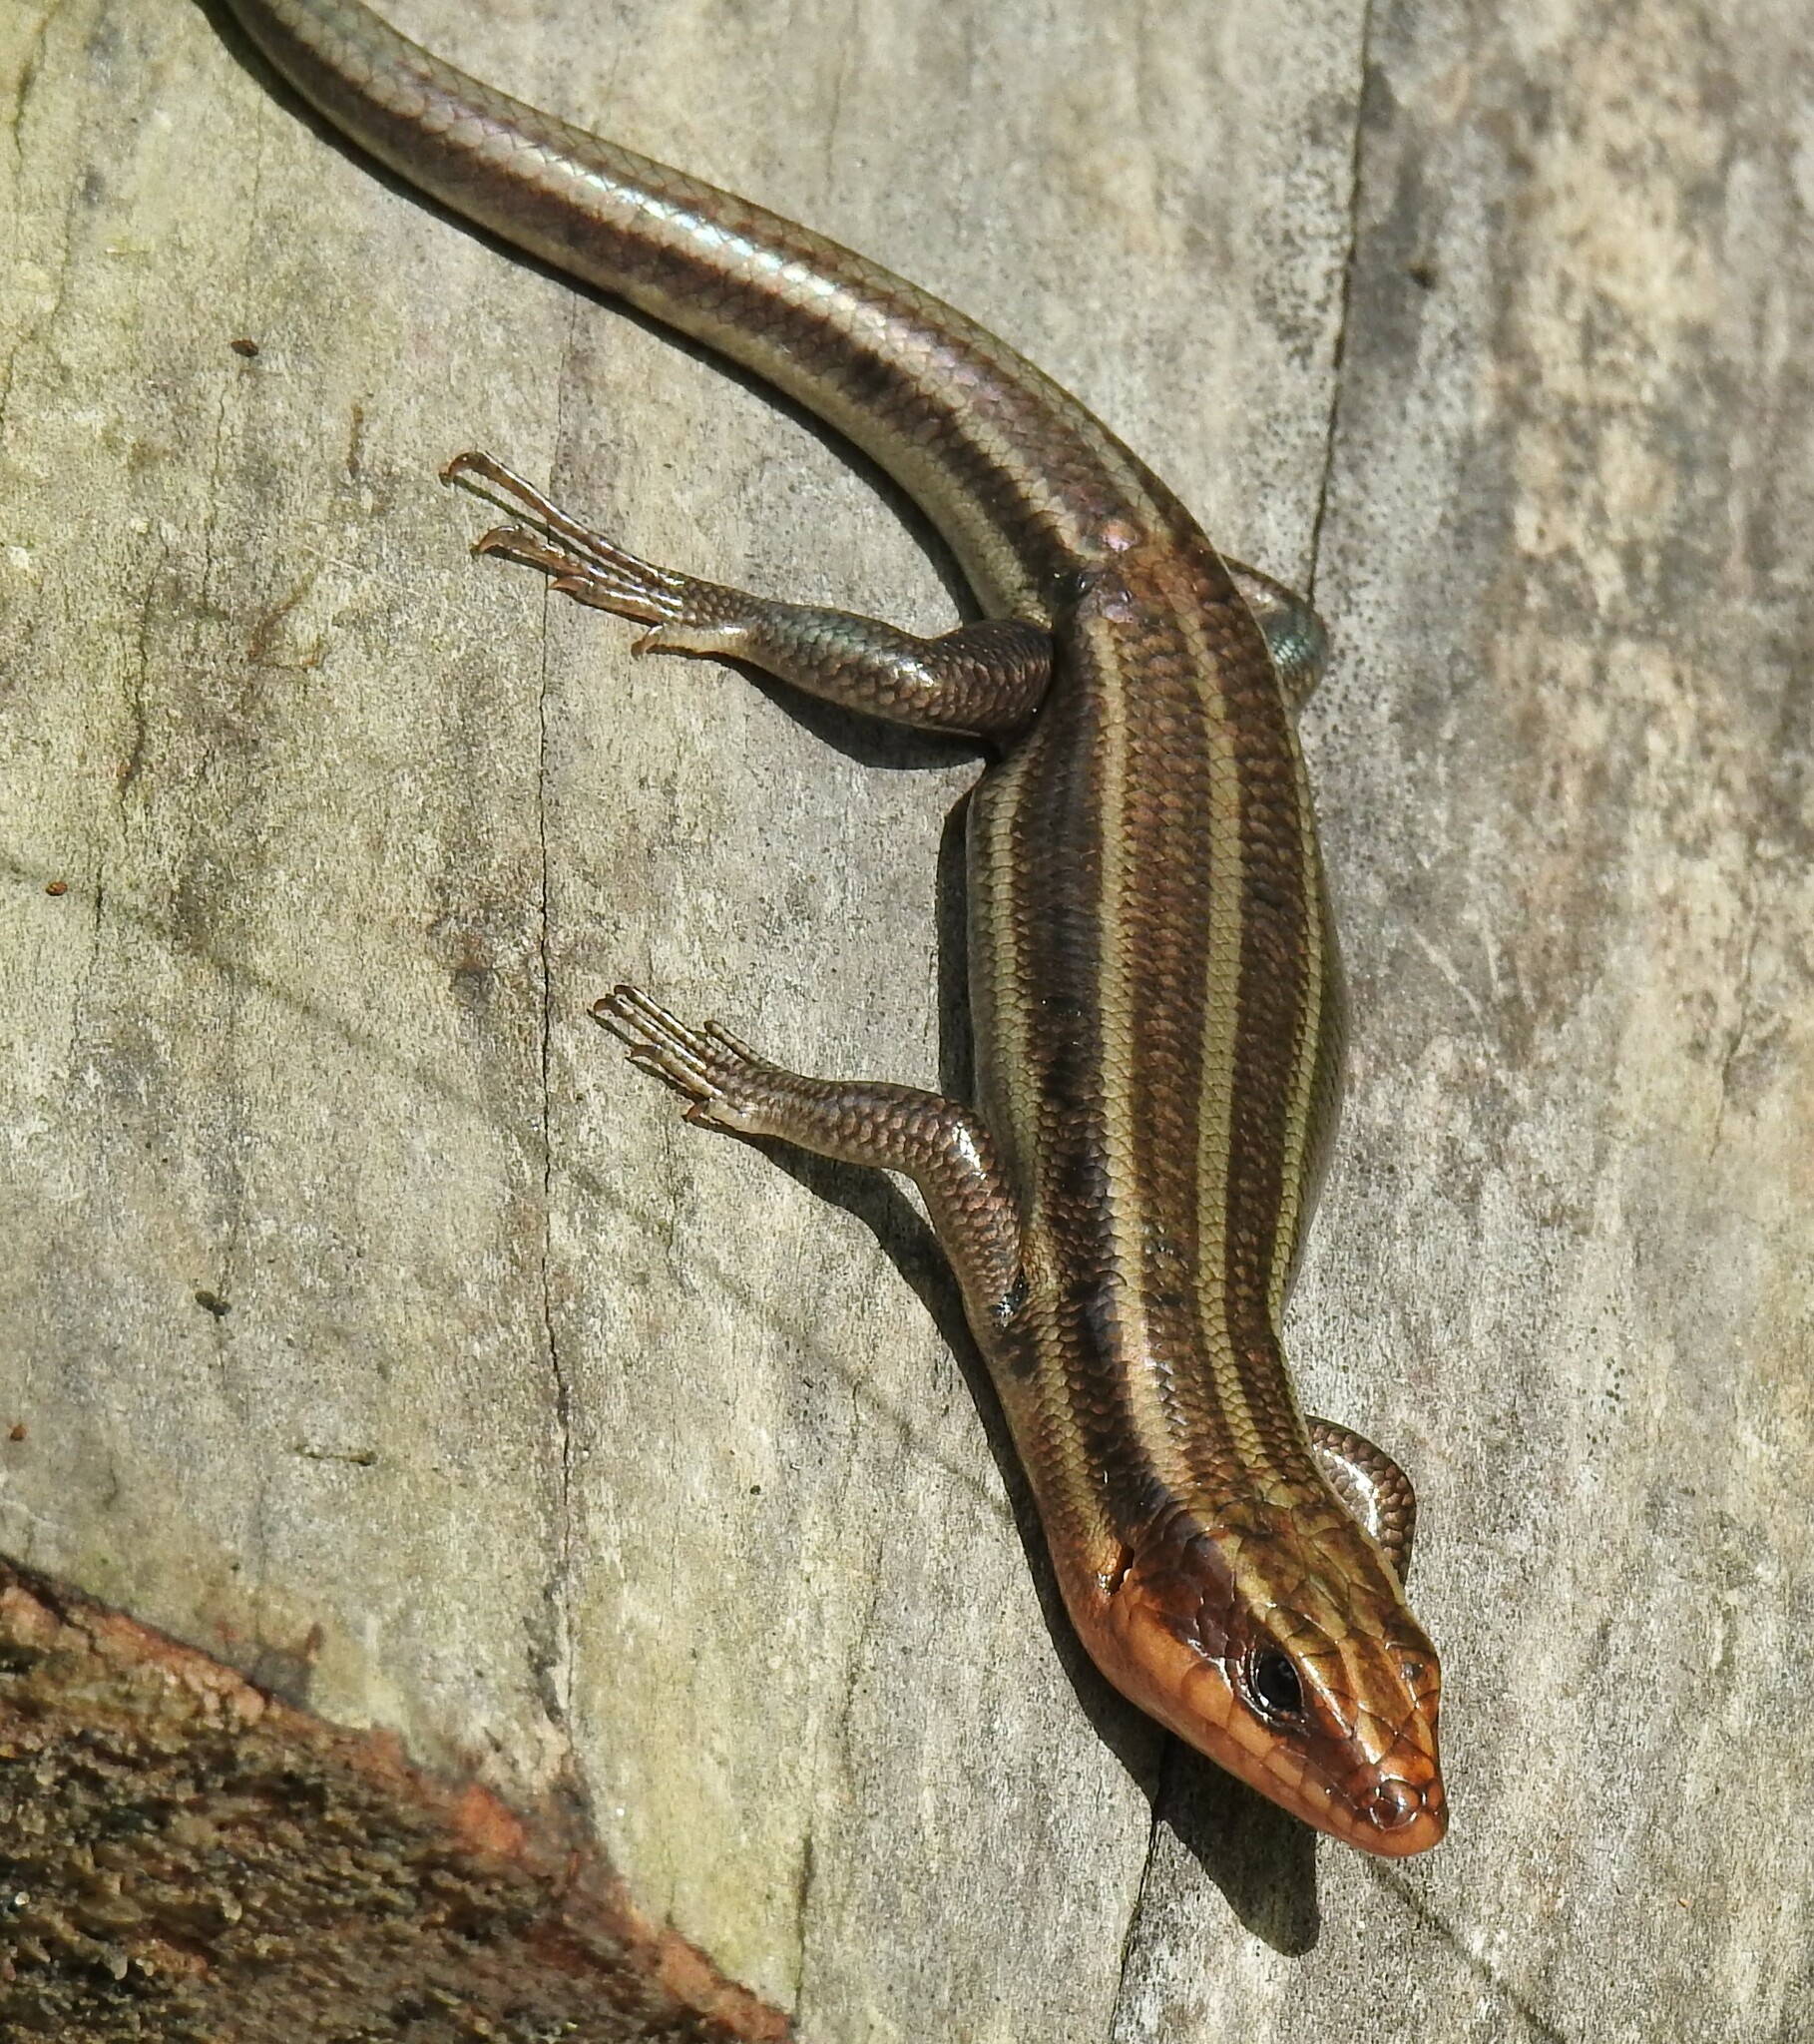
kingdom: Animalia
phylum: Chordata
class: Squamata
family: Scincidae
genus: Plestiodon
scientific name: Plestiodon fasciatus
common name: Five-lined skink
